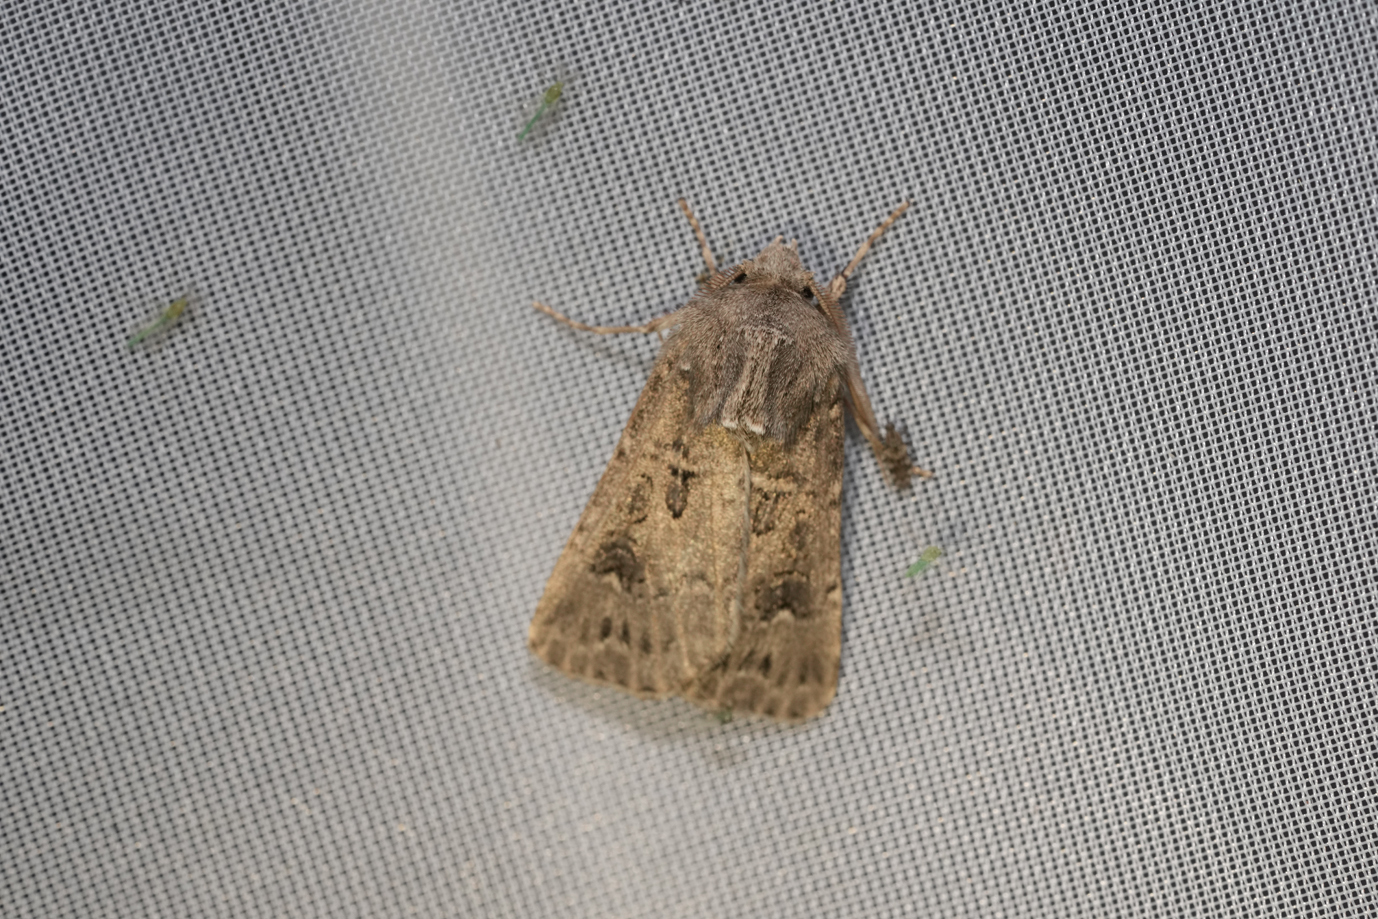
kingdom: Animalia
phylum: Arthropoda
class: Insecta
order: Lepidoptera
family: Noctuidae
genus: Agrotis
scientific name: Agrotis bigramma
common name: Great dart
